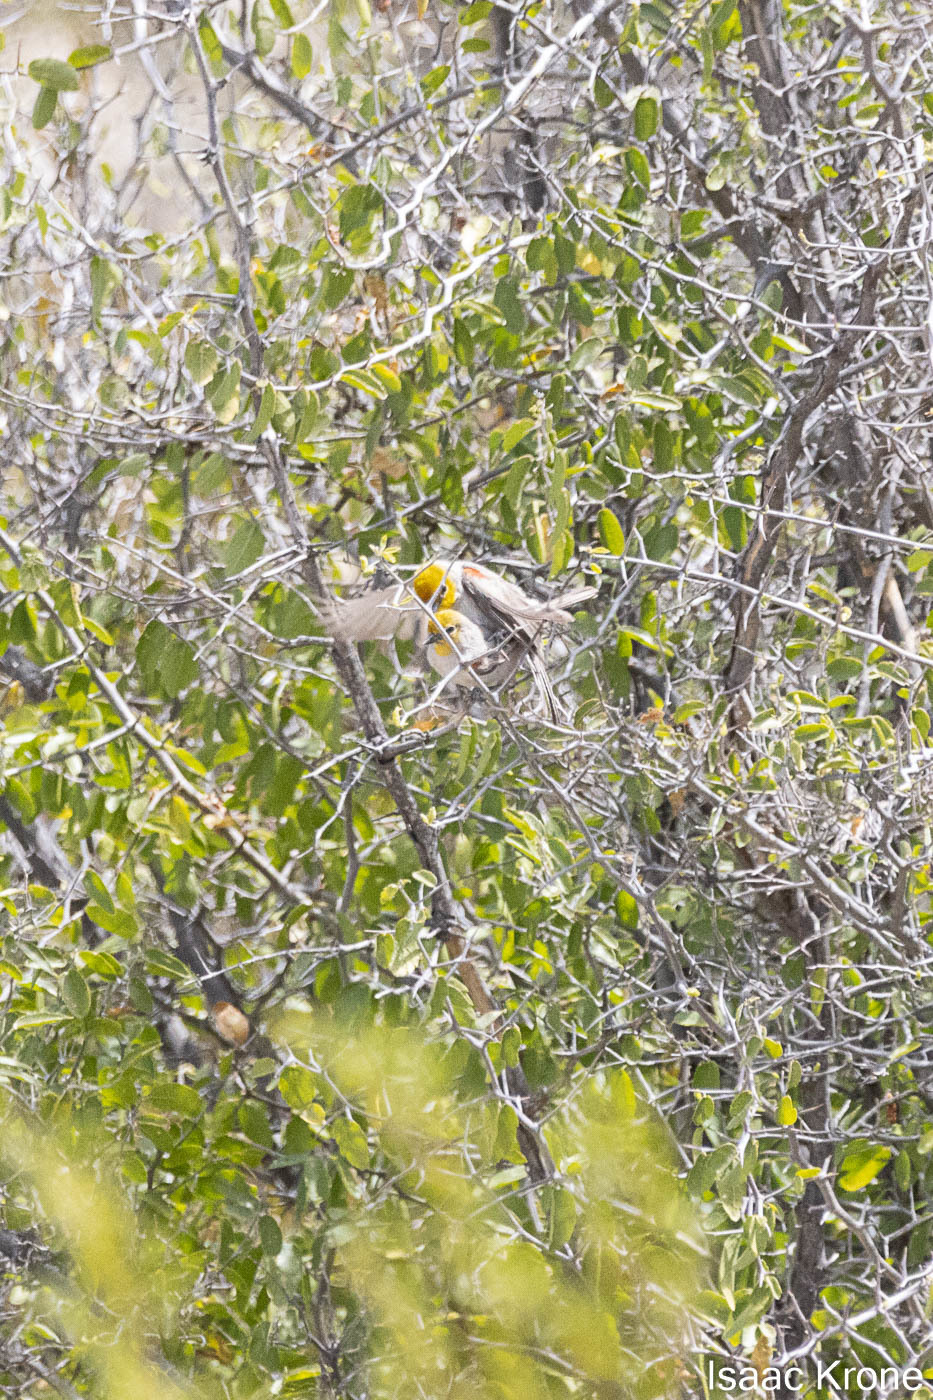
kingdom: Animalia
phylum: Chordata
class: Aves
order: Passeriformes
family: Remizidae
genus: Auriparus
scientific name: Auriparus flaviceps
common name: Verdin
